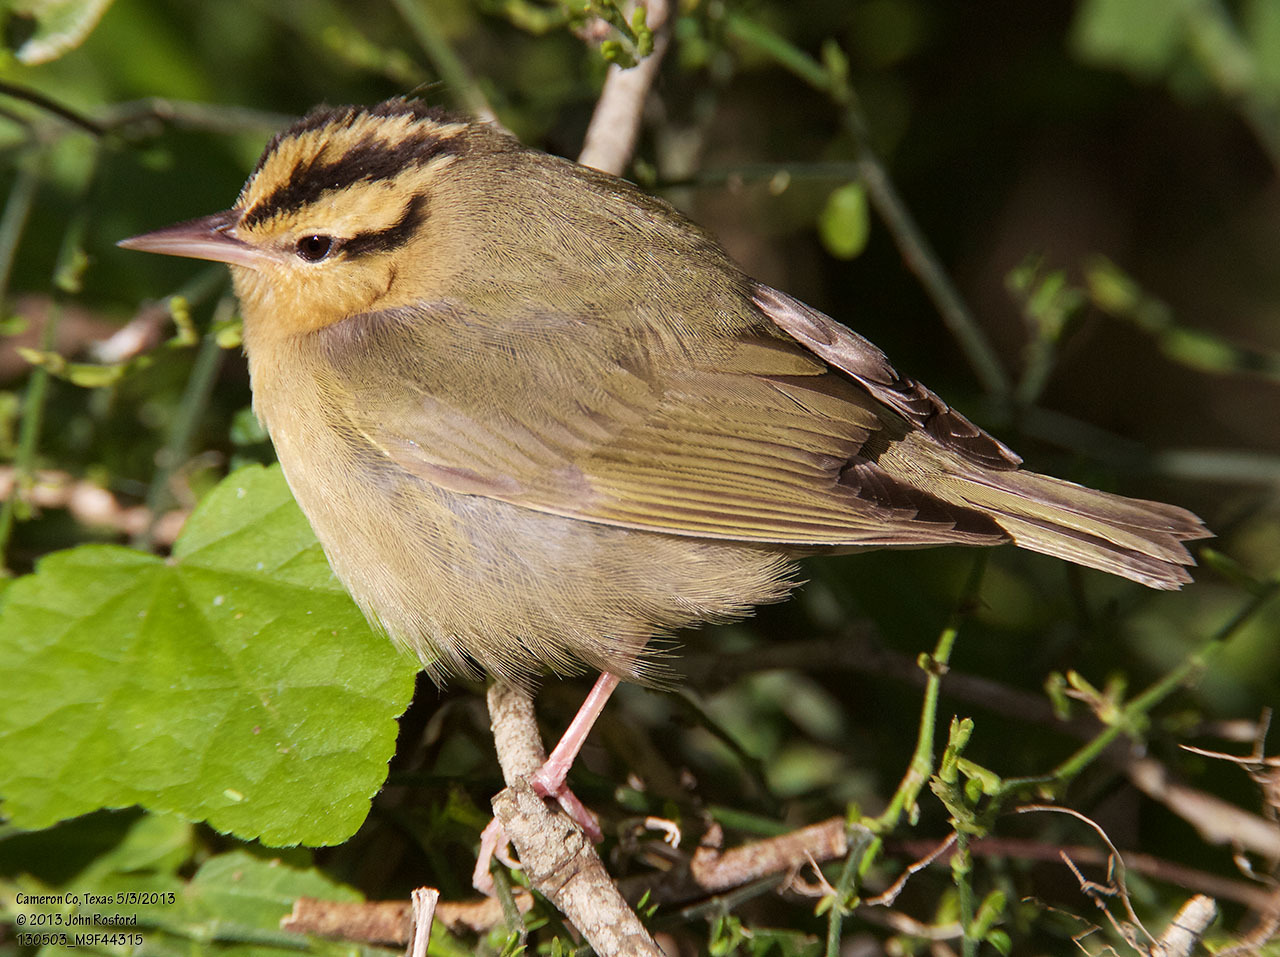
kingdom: Animalia
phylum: Chordata
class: Aves
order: Passeriformes
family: Parulidae
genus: Helmitheros
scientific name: Helmitheros vermivorum
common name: Worm-eating warbler
